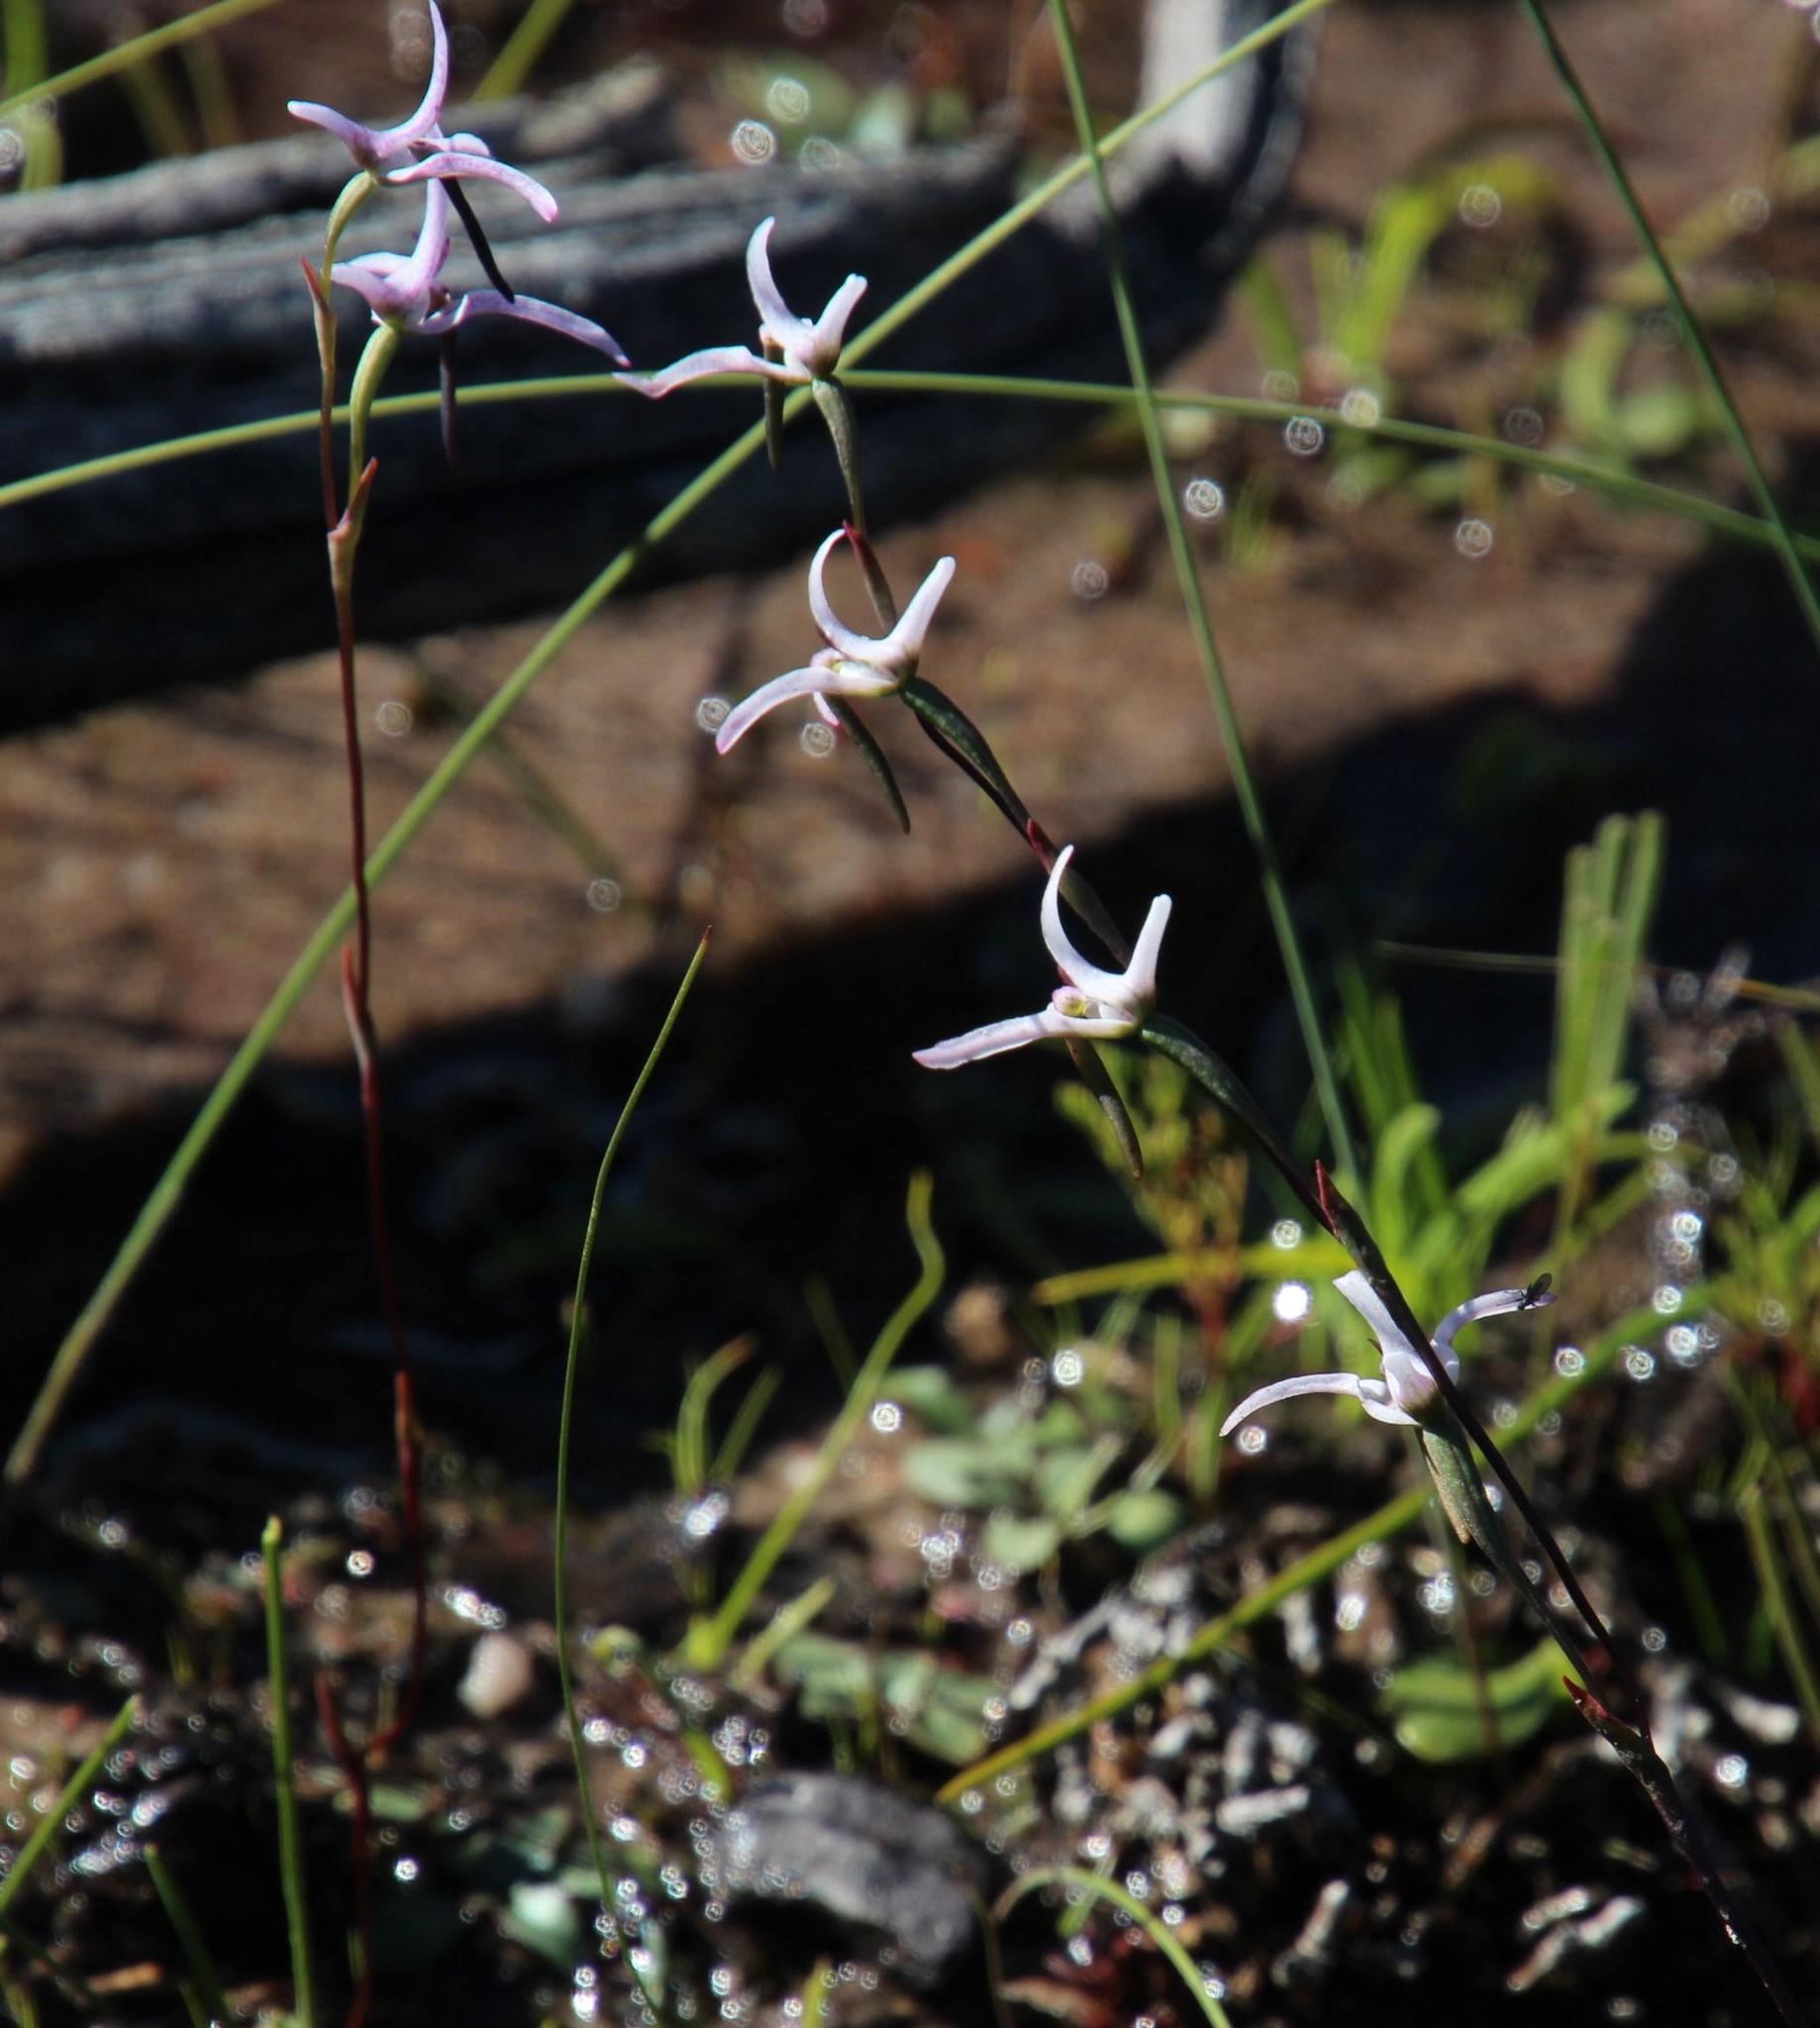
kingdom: Plantae
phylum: Tracheophyta
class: Liliopsida
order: Asparagales
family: Orchidaceae
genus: Disa
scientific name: Disa biflora
